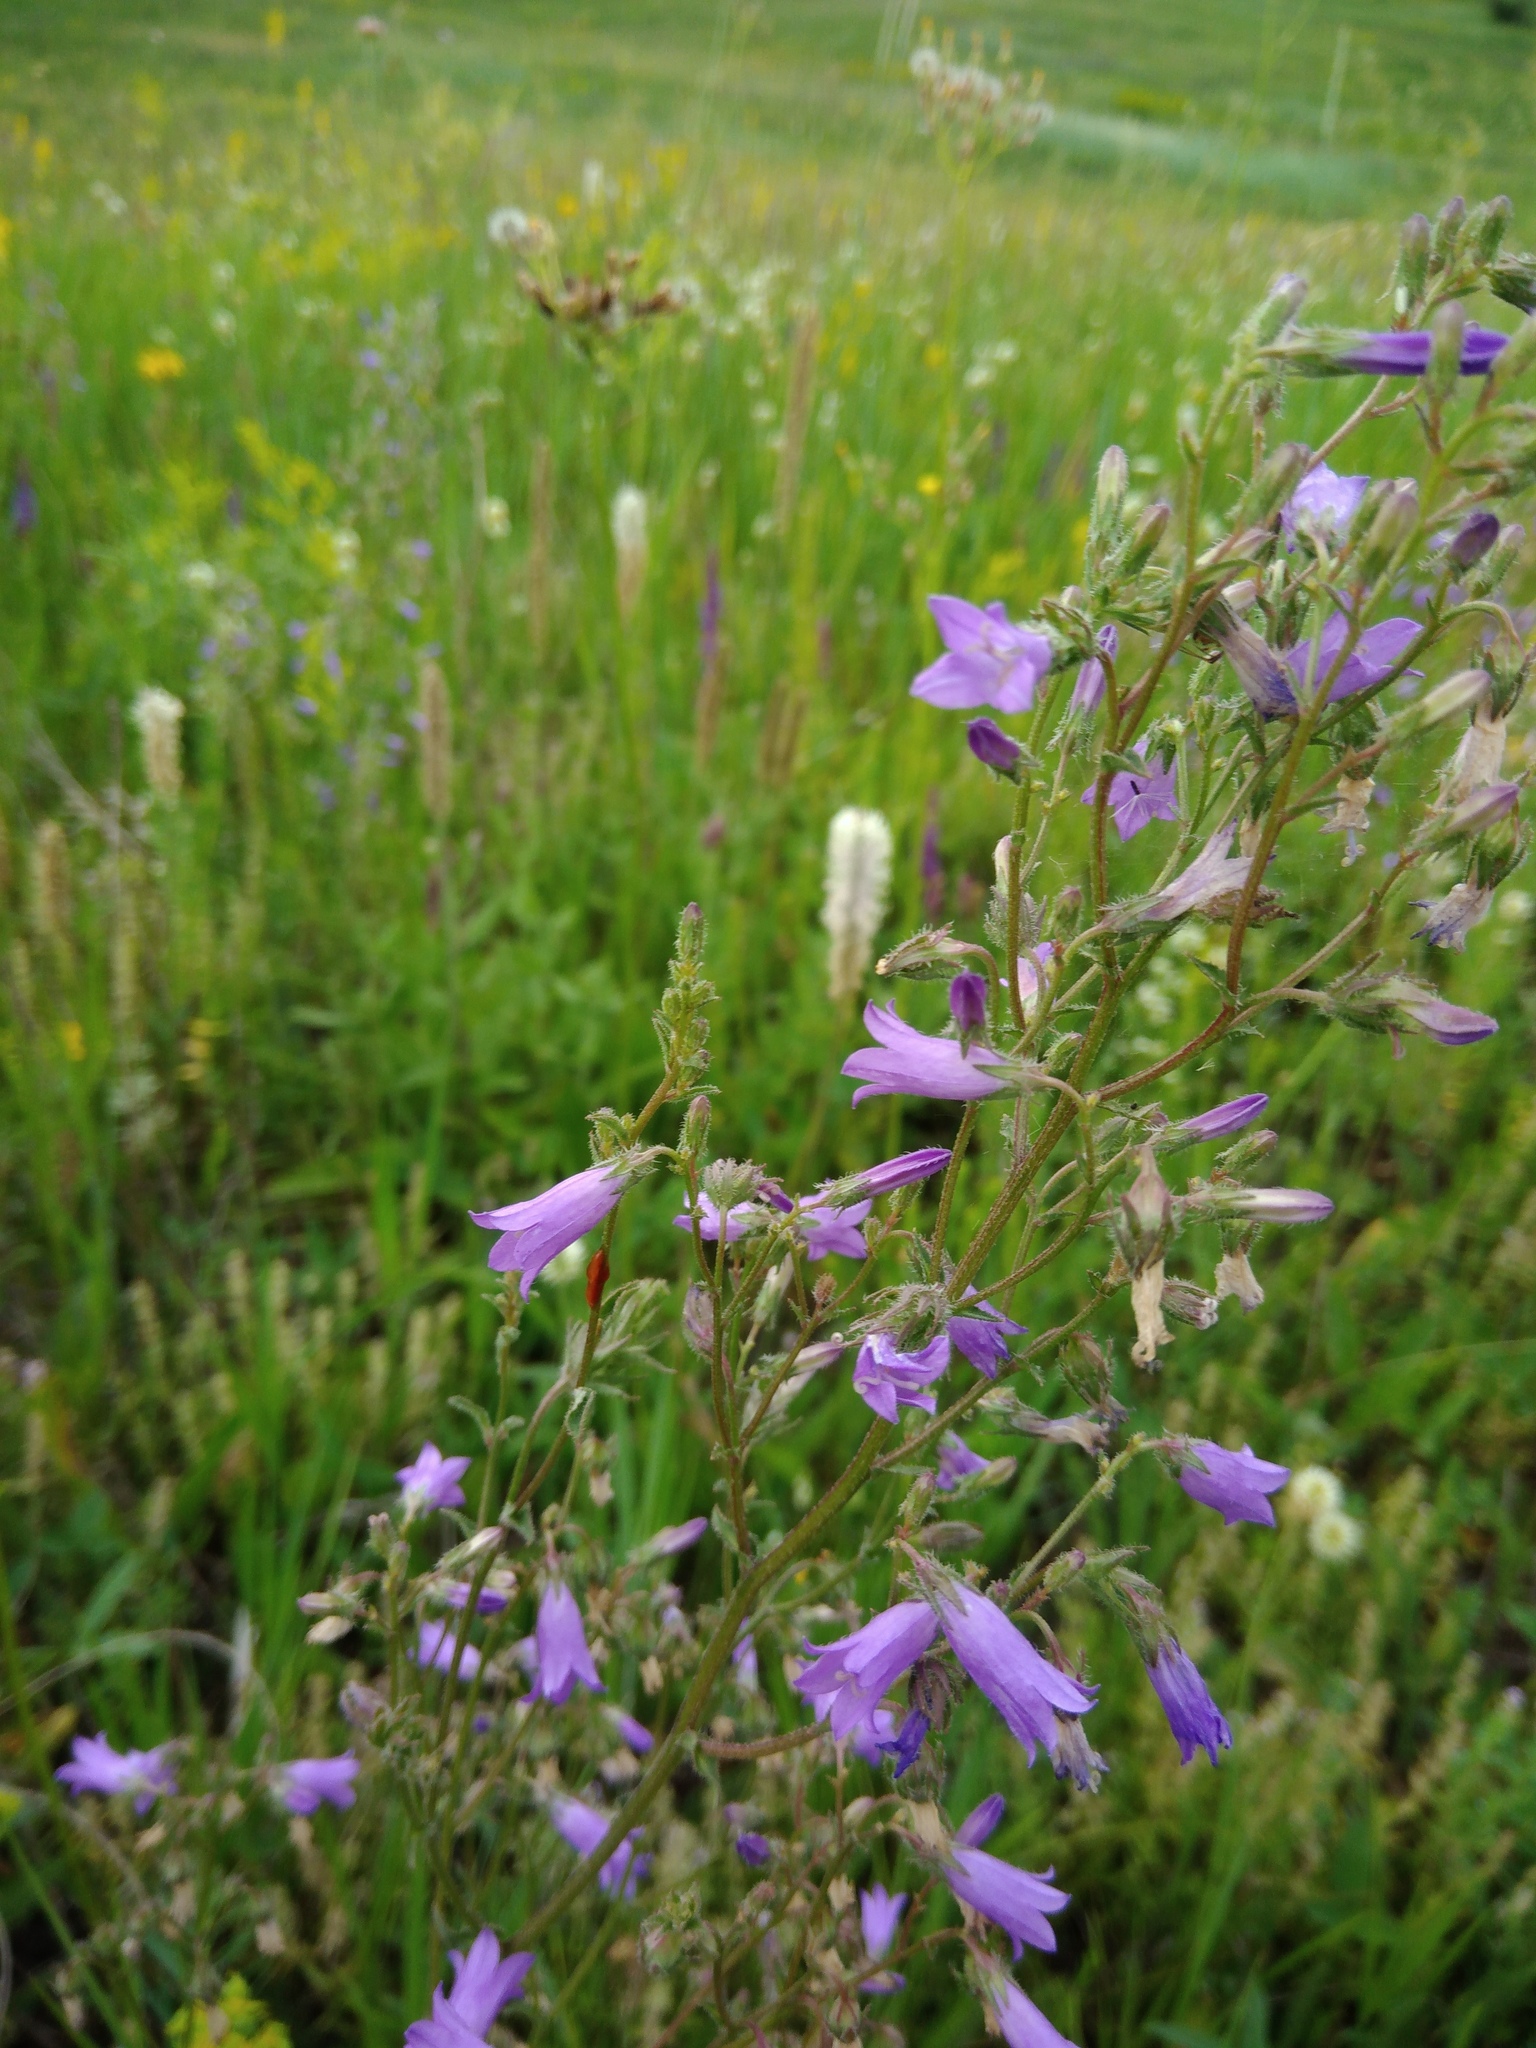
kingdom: Plantae
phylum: Tracheophyta
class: Magnoliopsida
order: Asterales
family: Campanulaceae
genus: Campanula
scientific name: Campanula sibirica
